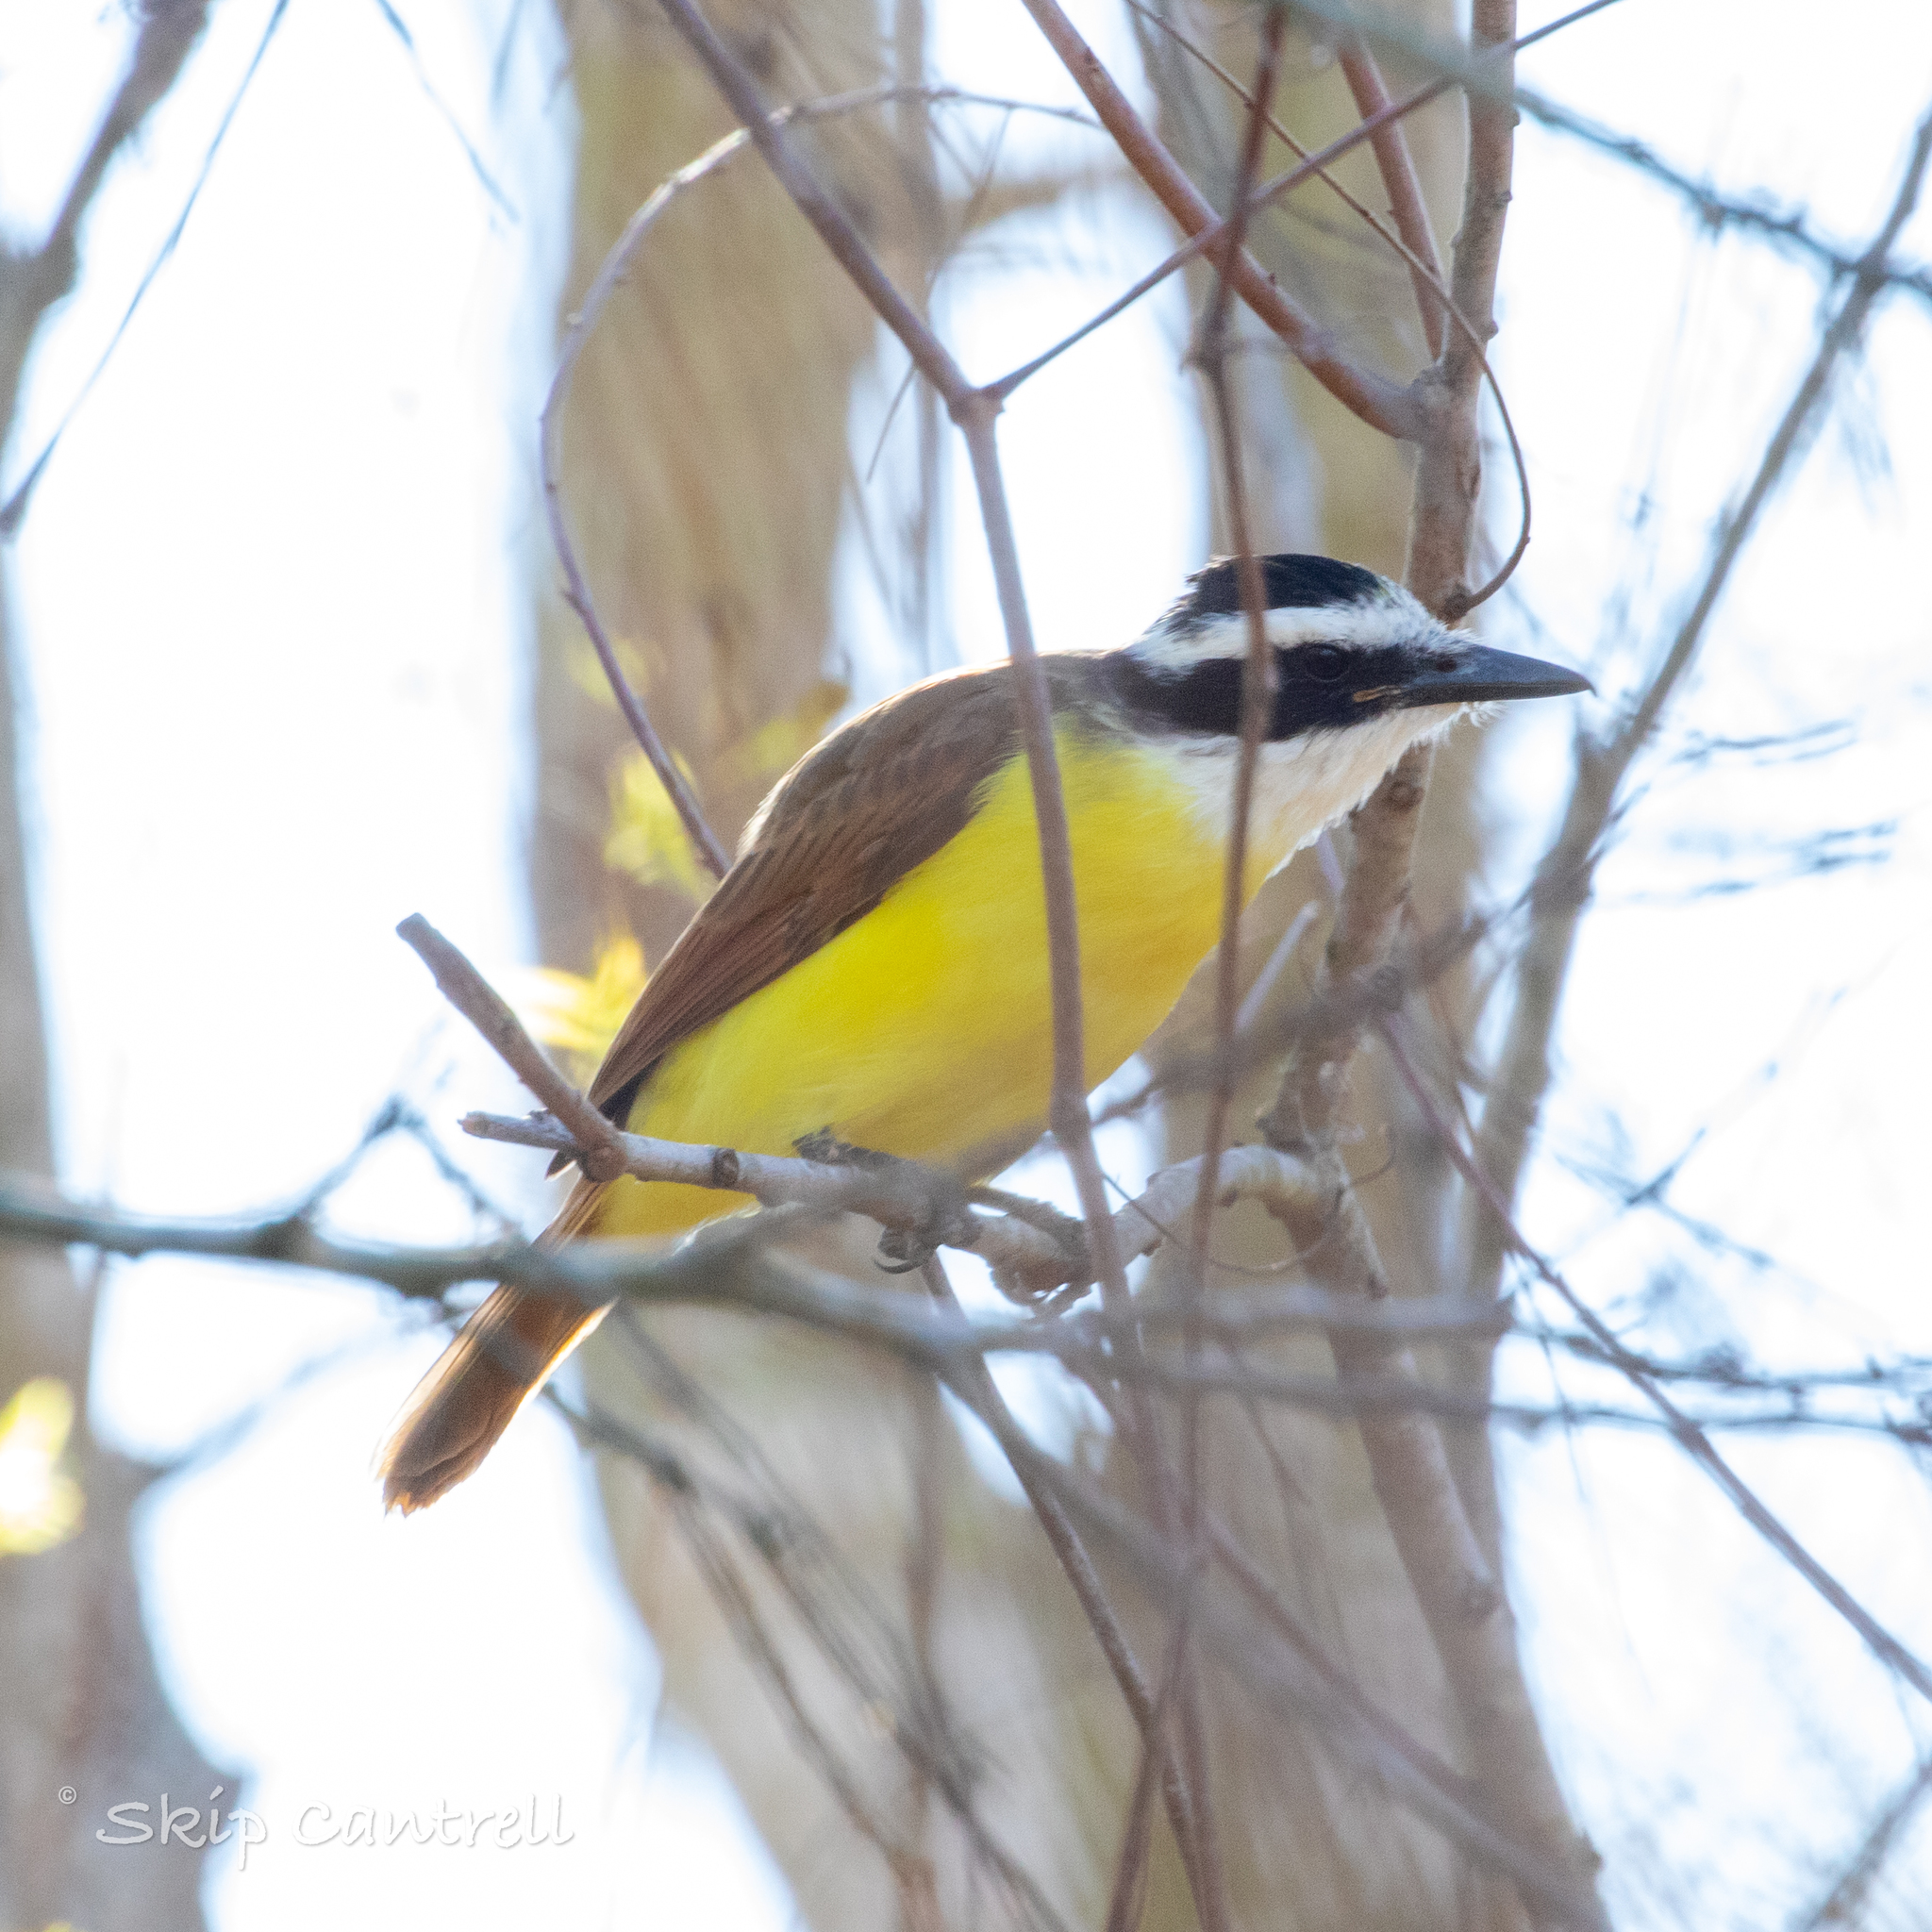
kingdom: Animalia
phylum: Chordata
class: Aves
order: Passeriformes
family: Tyrannidae
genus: Pitangus
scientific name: Pitangus sulphuratus
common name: Great kiskadee
